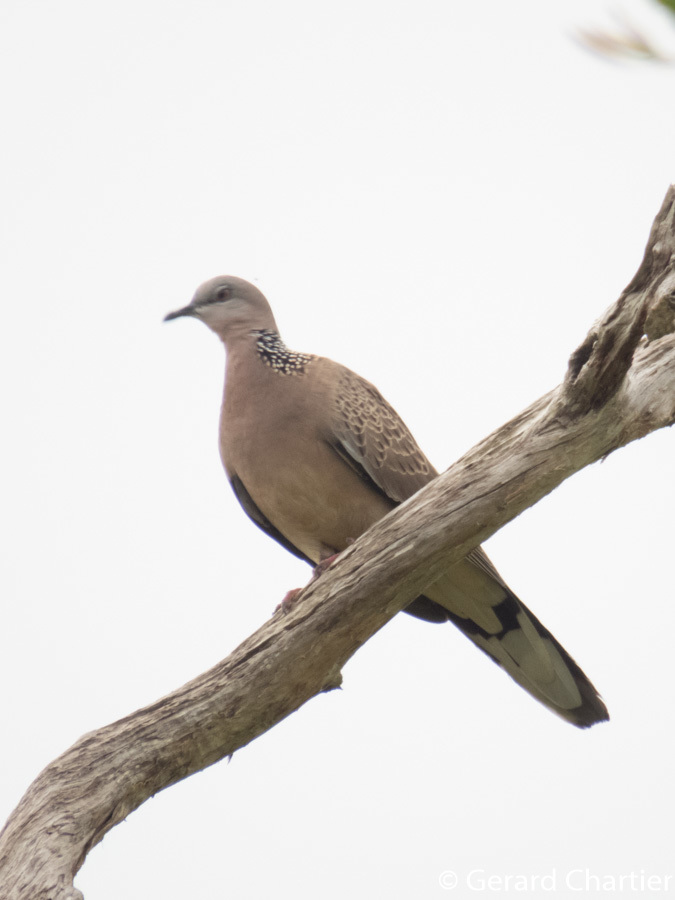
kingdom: Animalia
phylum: Chordata
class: Aves
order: Columbiformes
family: Columbidae
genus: Spilopelia
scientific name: Spilopelia chinensis
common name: Spotted dove
